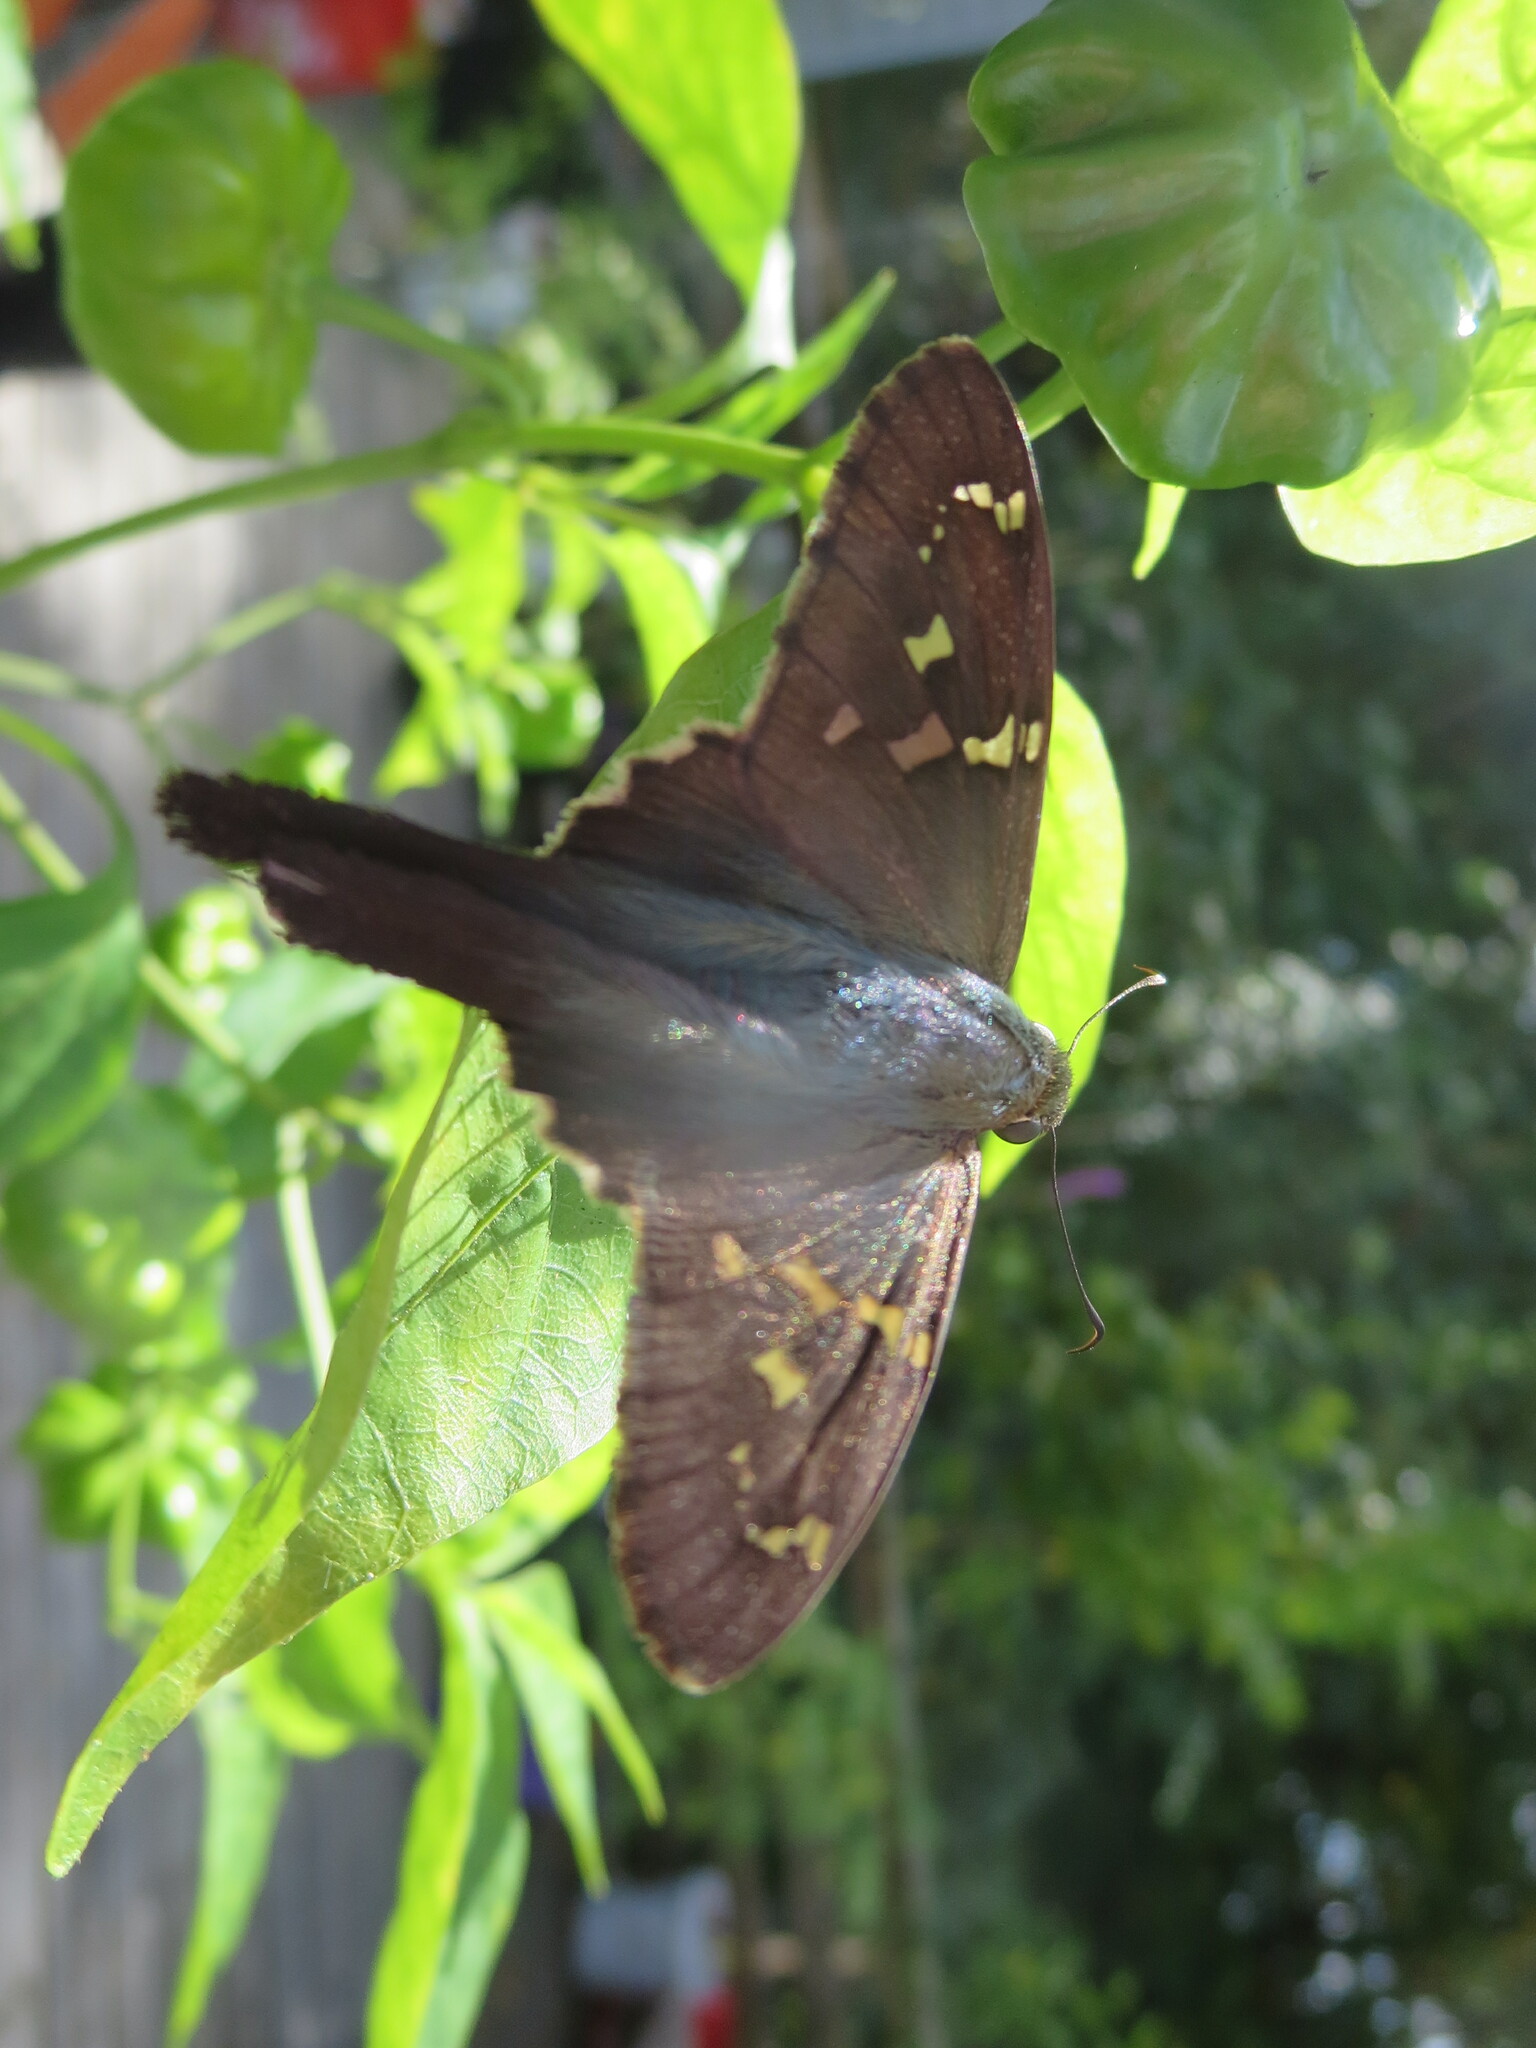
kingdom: Animalia
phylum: Arthropoda
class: Insecta
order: Lepidoptera
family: Hesperiidae
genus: Urbanus
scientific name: Urbanus proteus
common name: Long-tailed skipper
